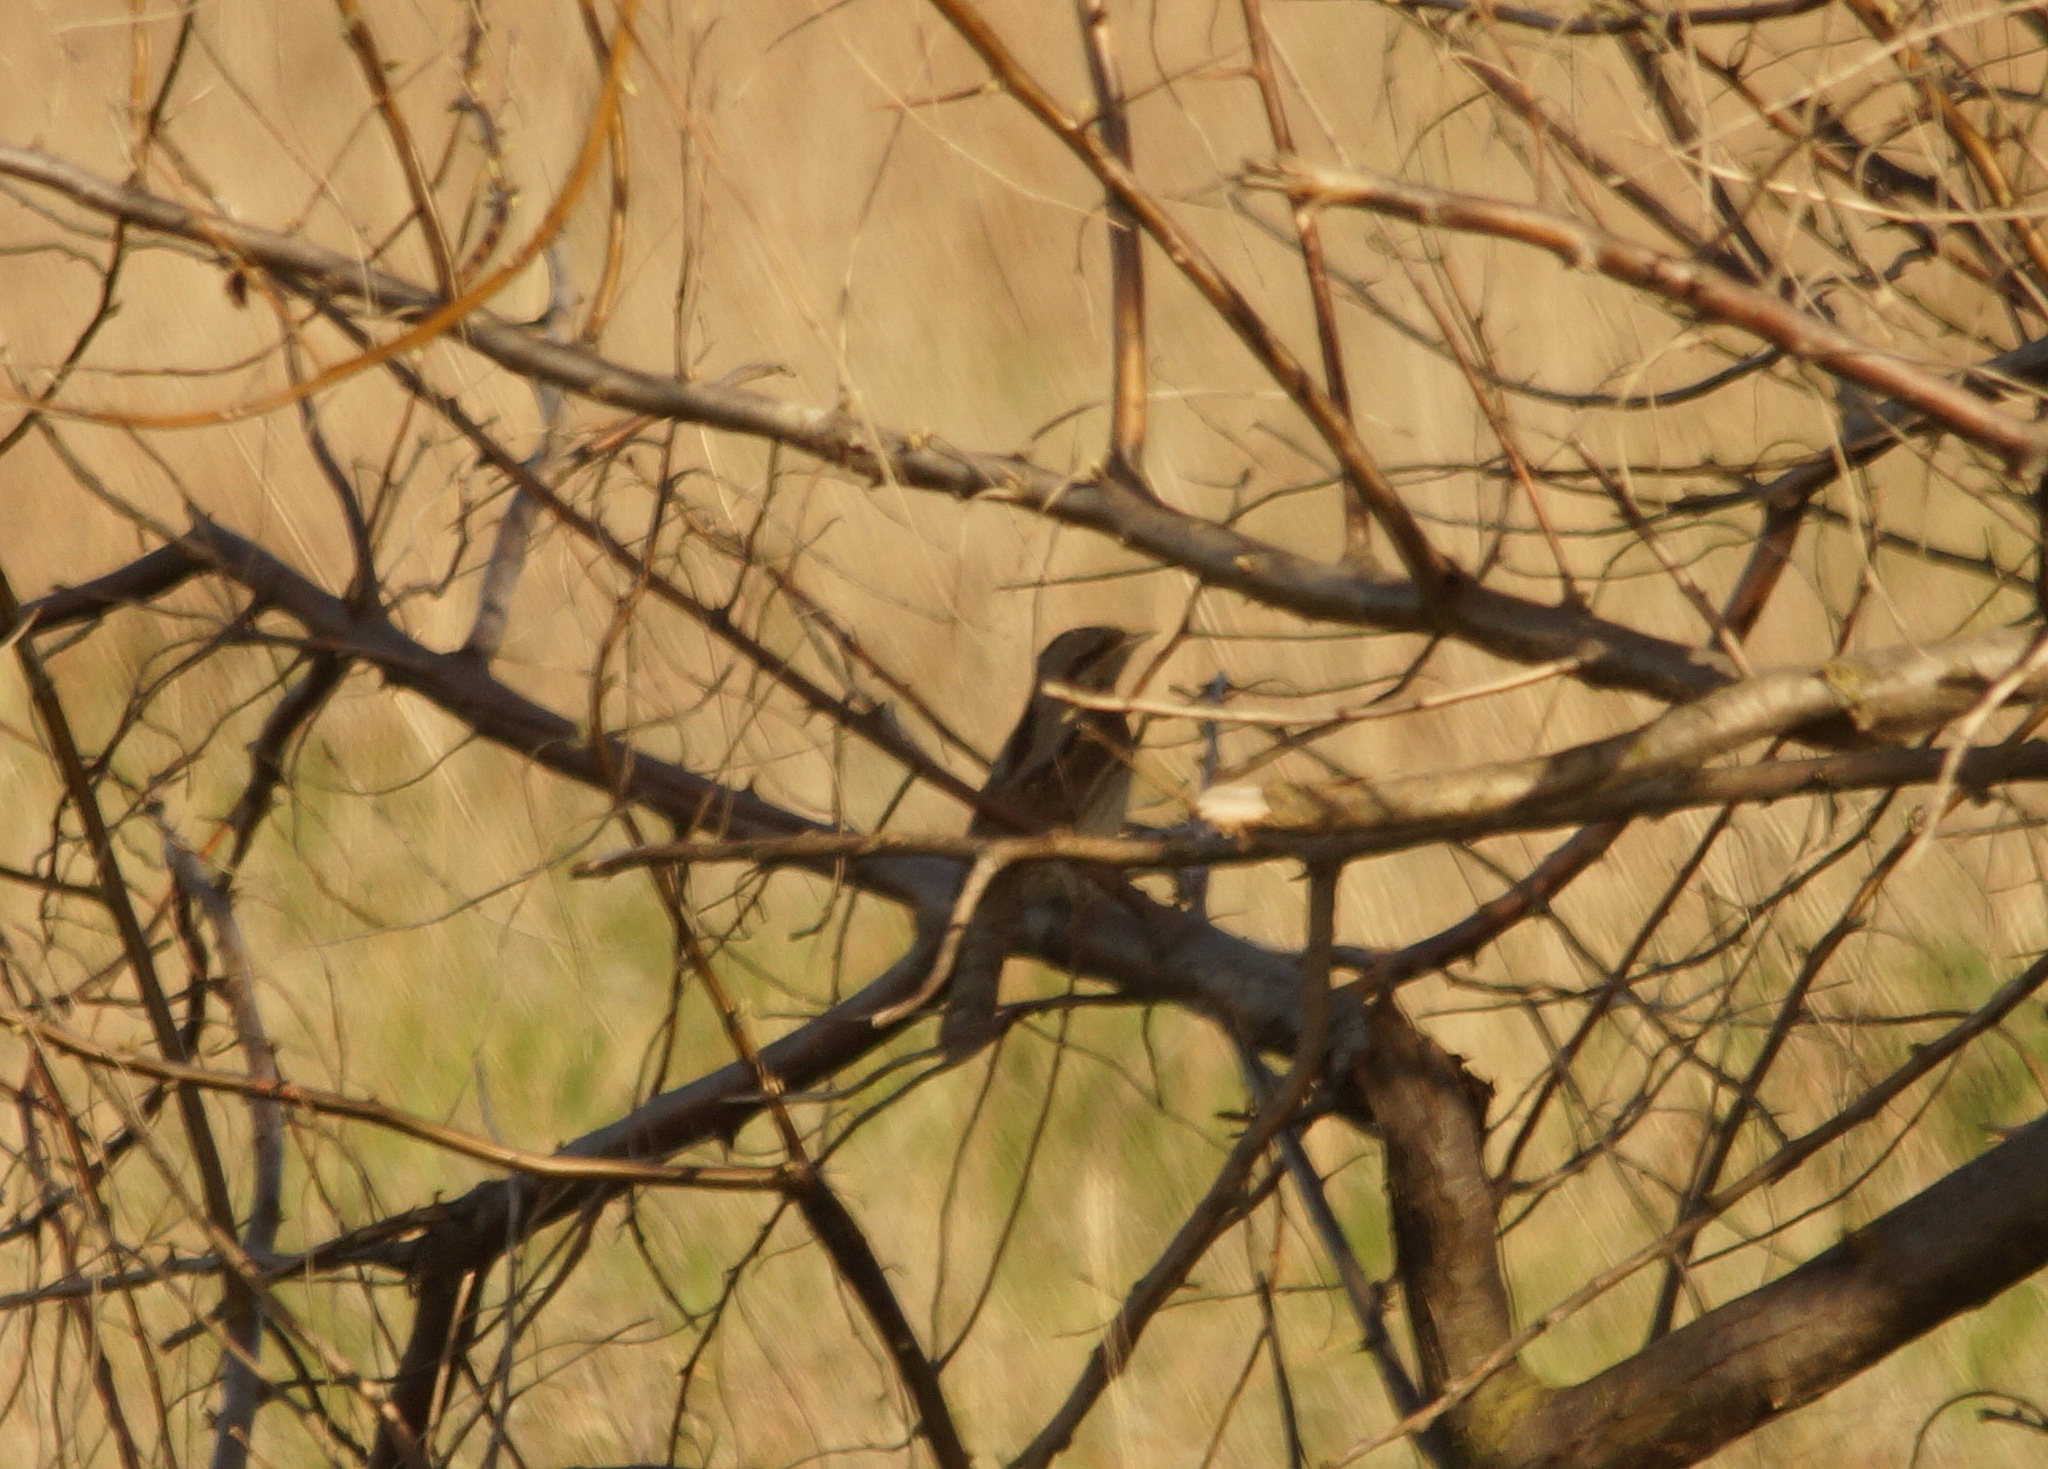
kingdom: Animalia
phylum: Chordata
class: Aves
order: Piciformes
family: Picidae
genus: Jynx
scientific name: Jynx torquilla
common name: Eurasian wryneck
